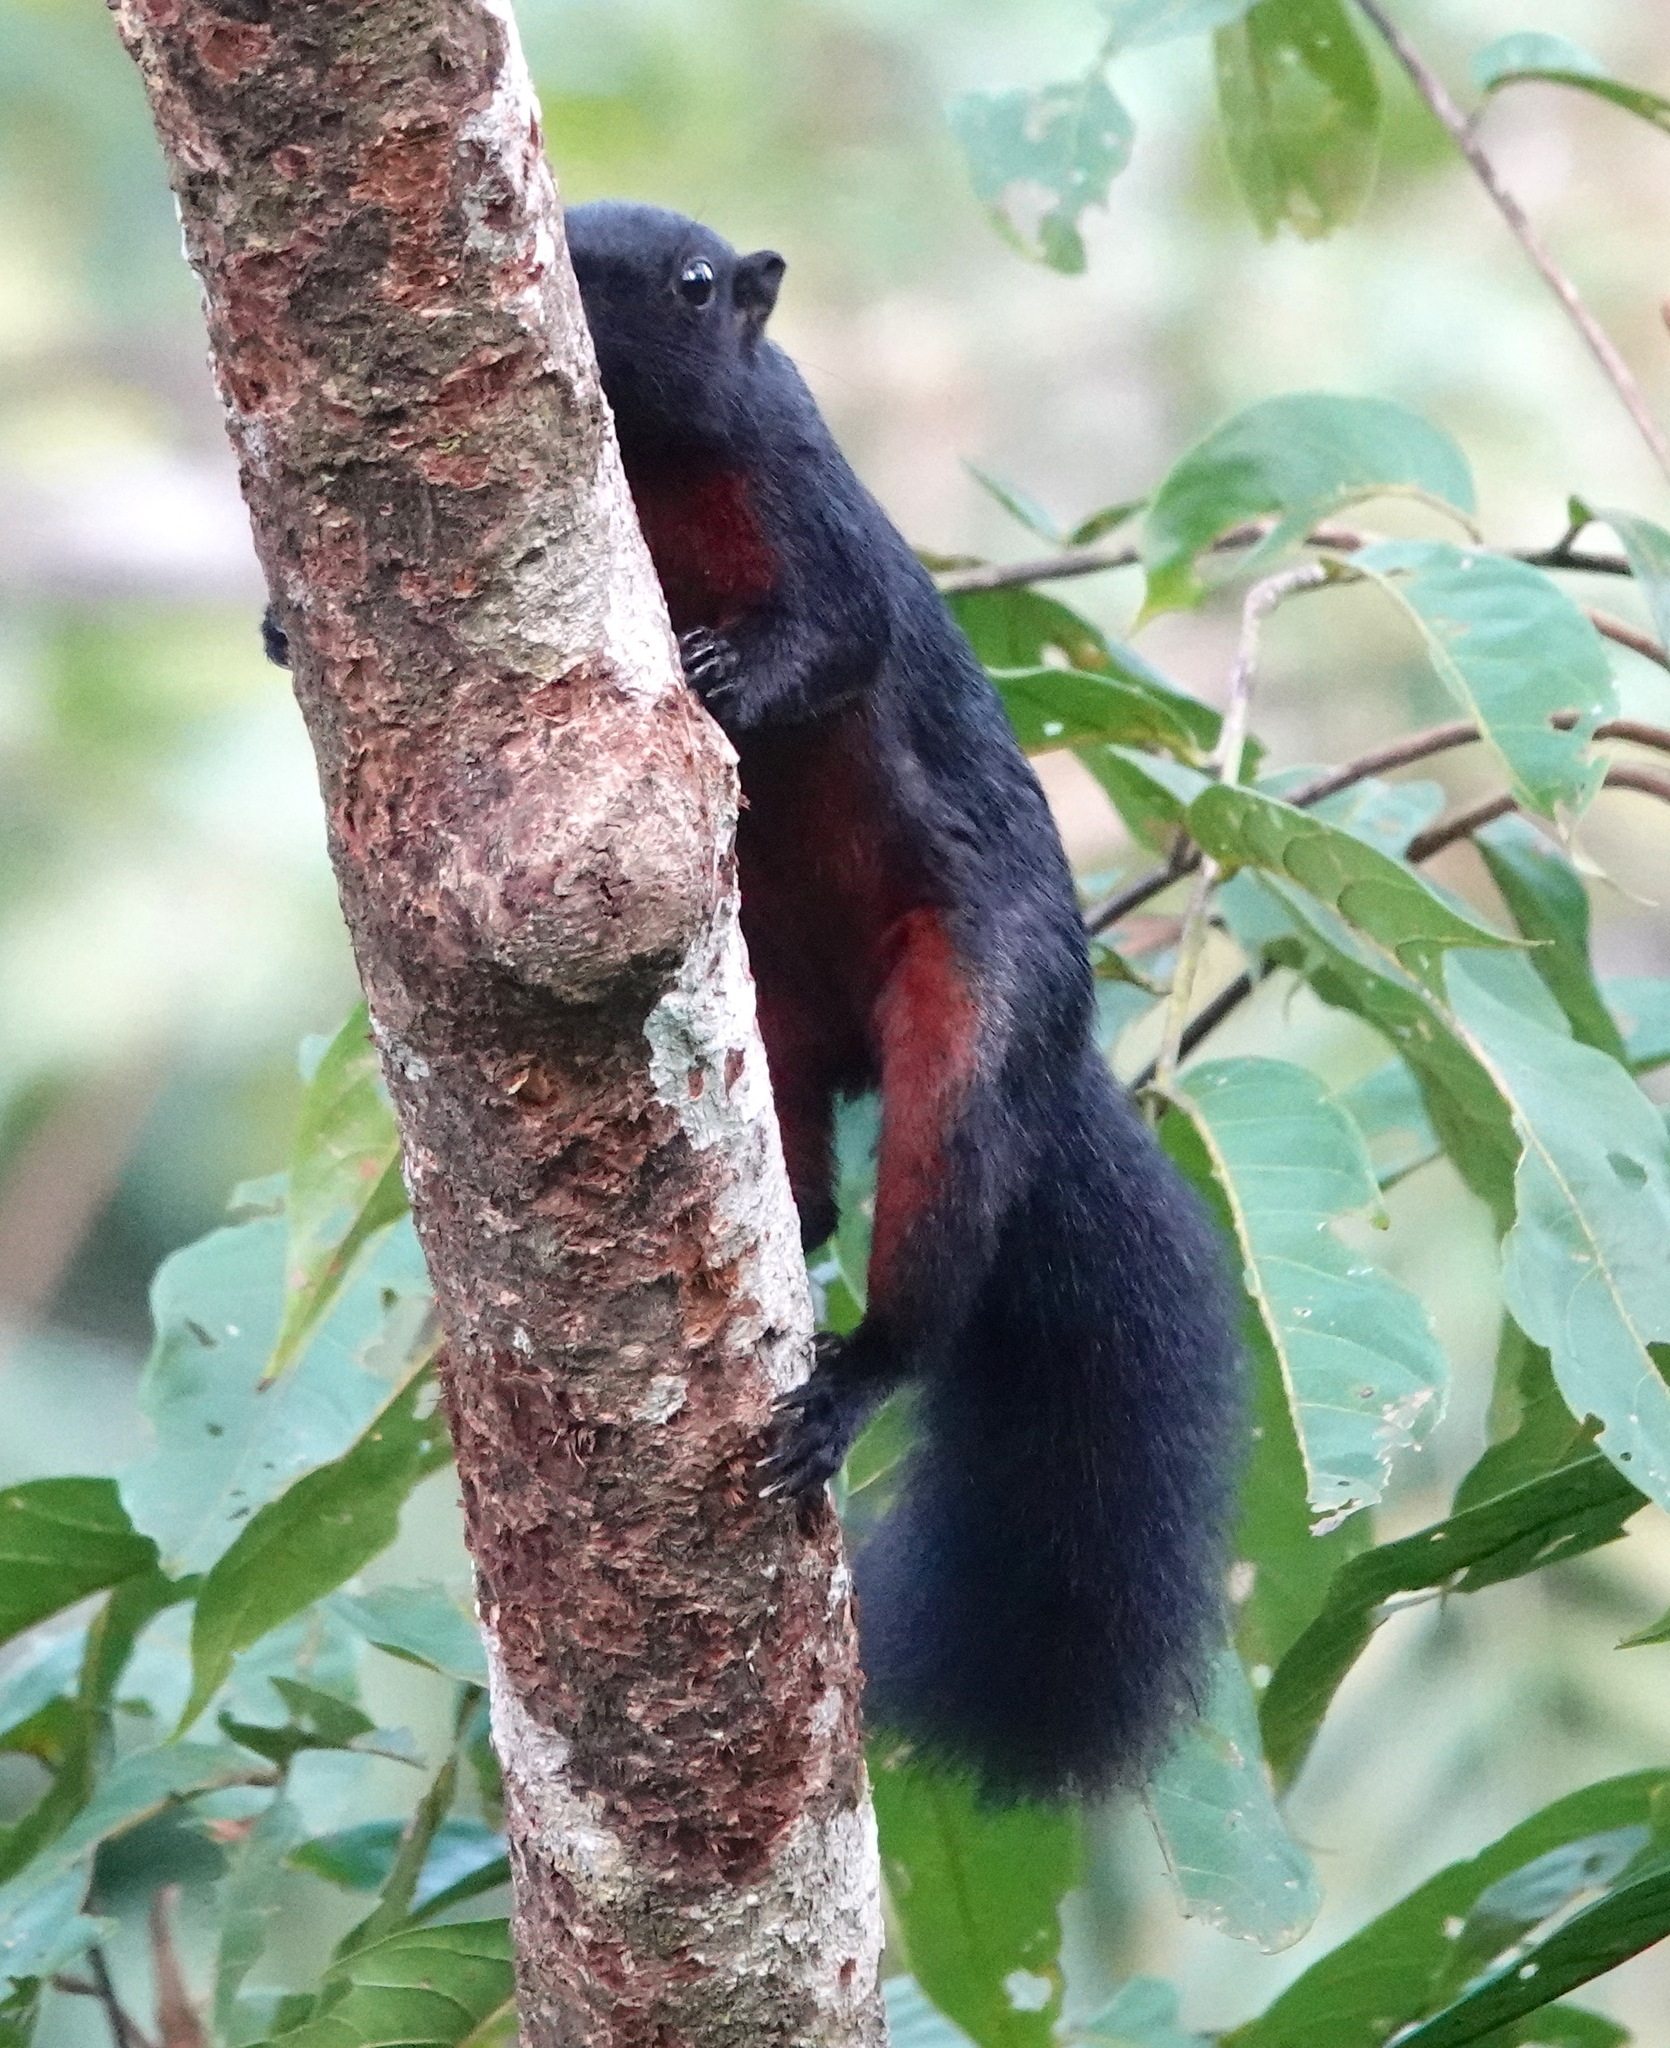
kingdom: Animalia
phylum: Chordata
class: Mammalia
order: Rodentia
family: Sciuridae
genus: Callosciurus
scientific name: Callosciurus prevostii
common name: Prevost's squirrel
